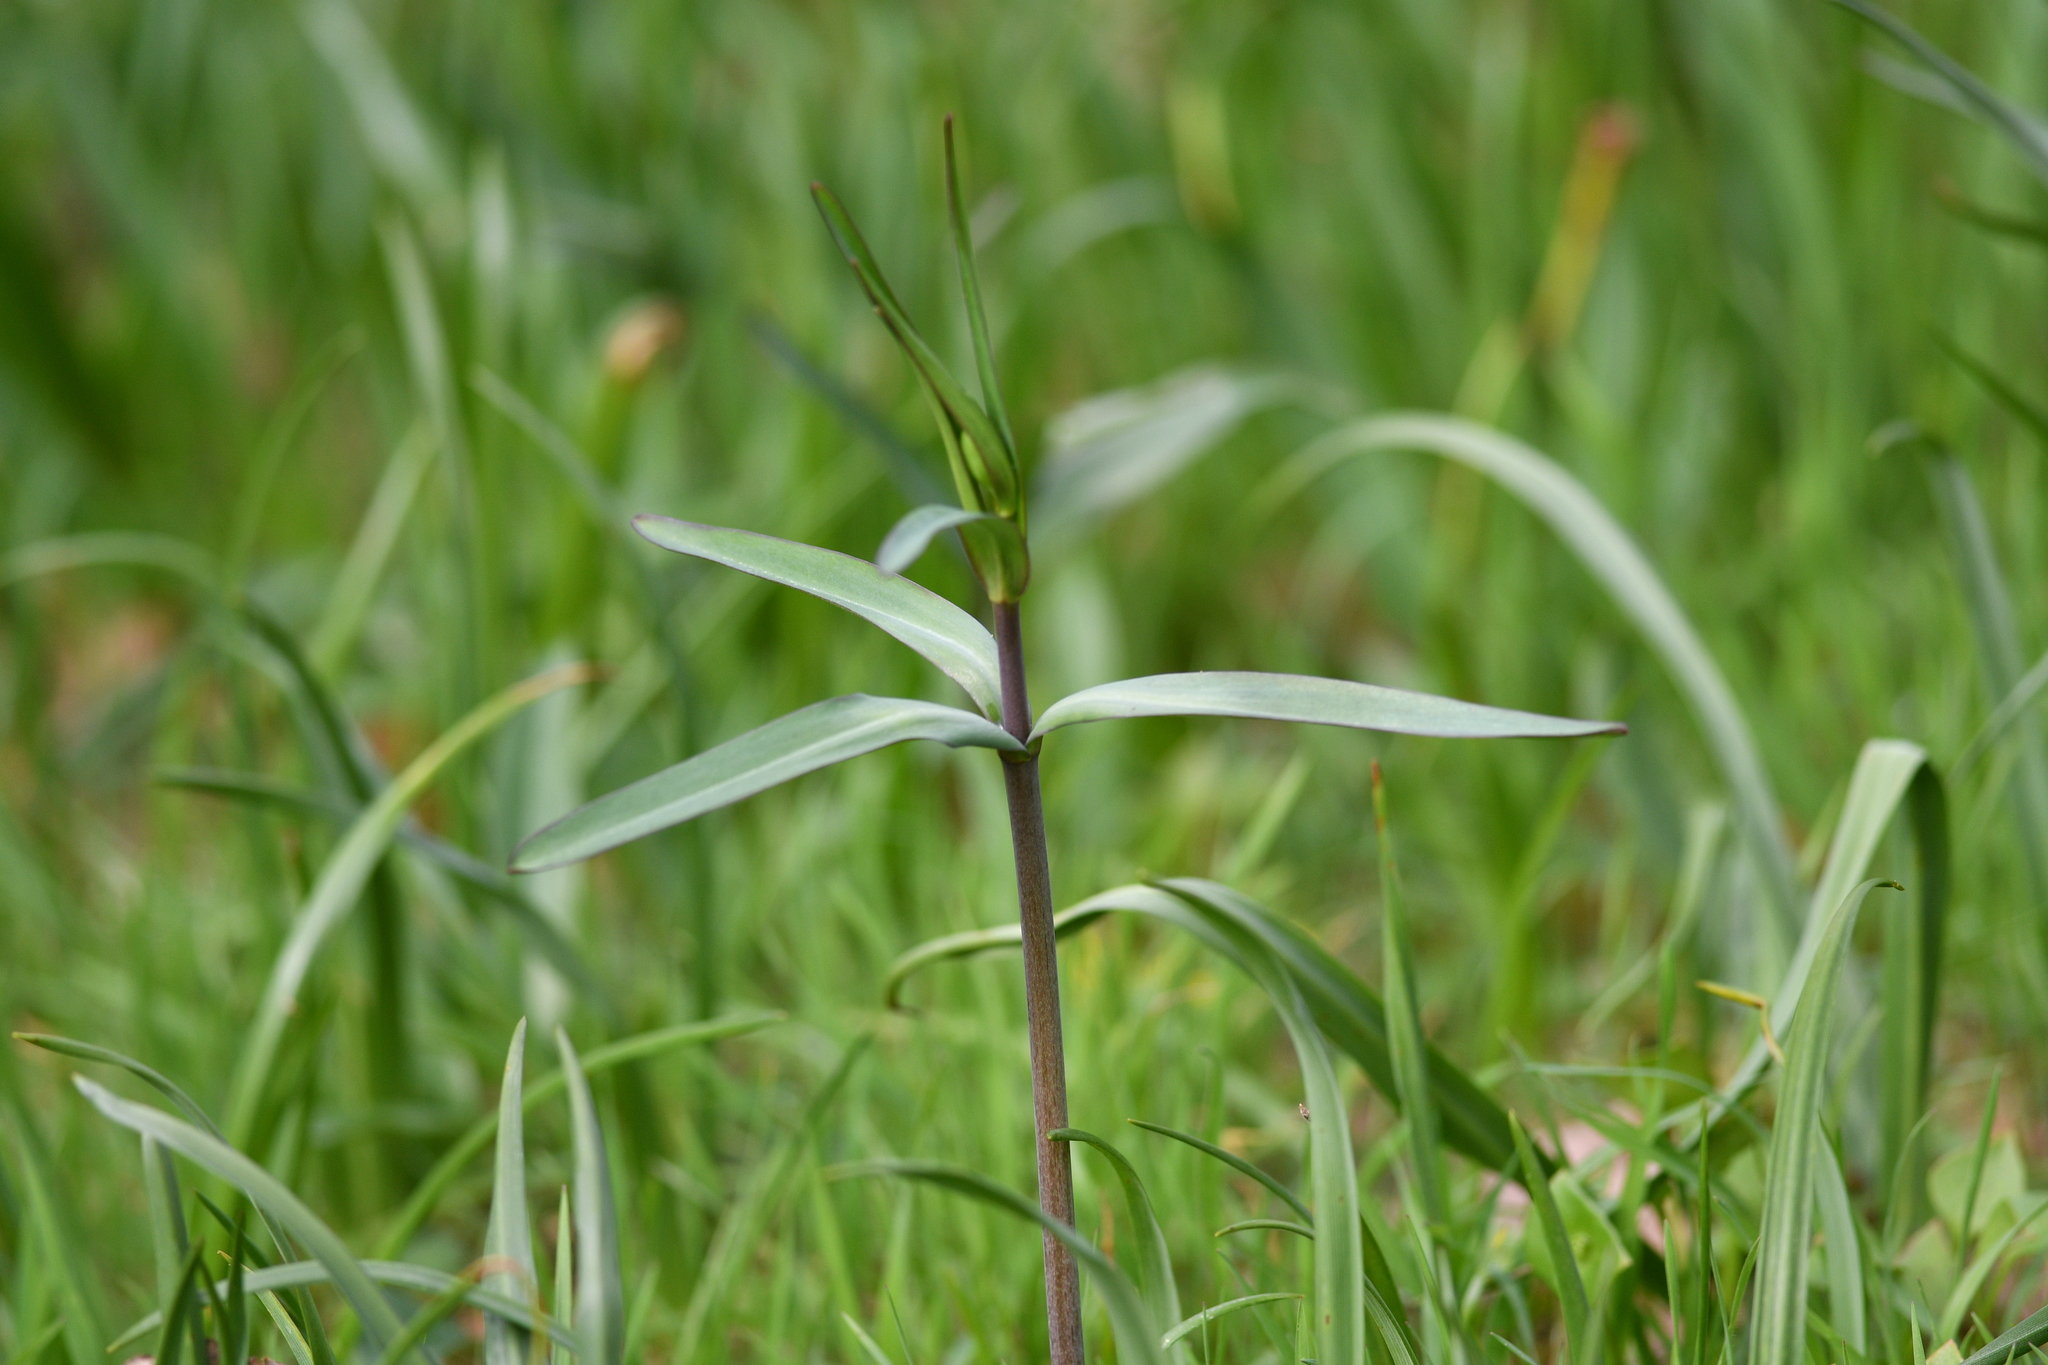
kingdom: Plantae
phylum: Tracheophyta
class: Liliopsida
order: Liliales
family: Liliaceae
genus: Fritillaria
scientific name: Fritillaria affinis
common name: Ojai fritillary
